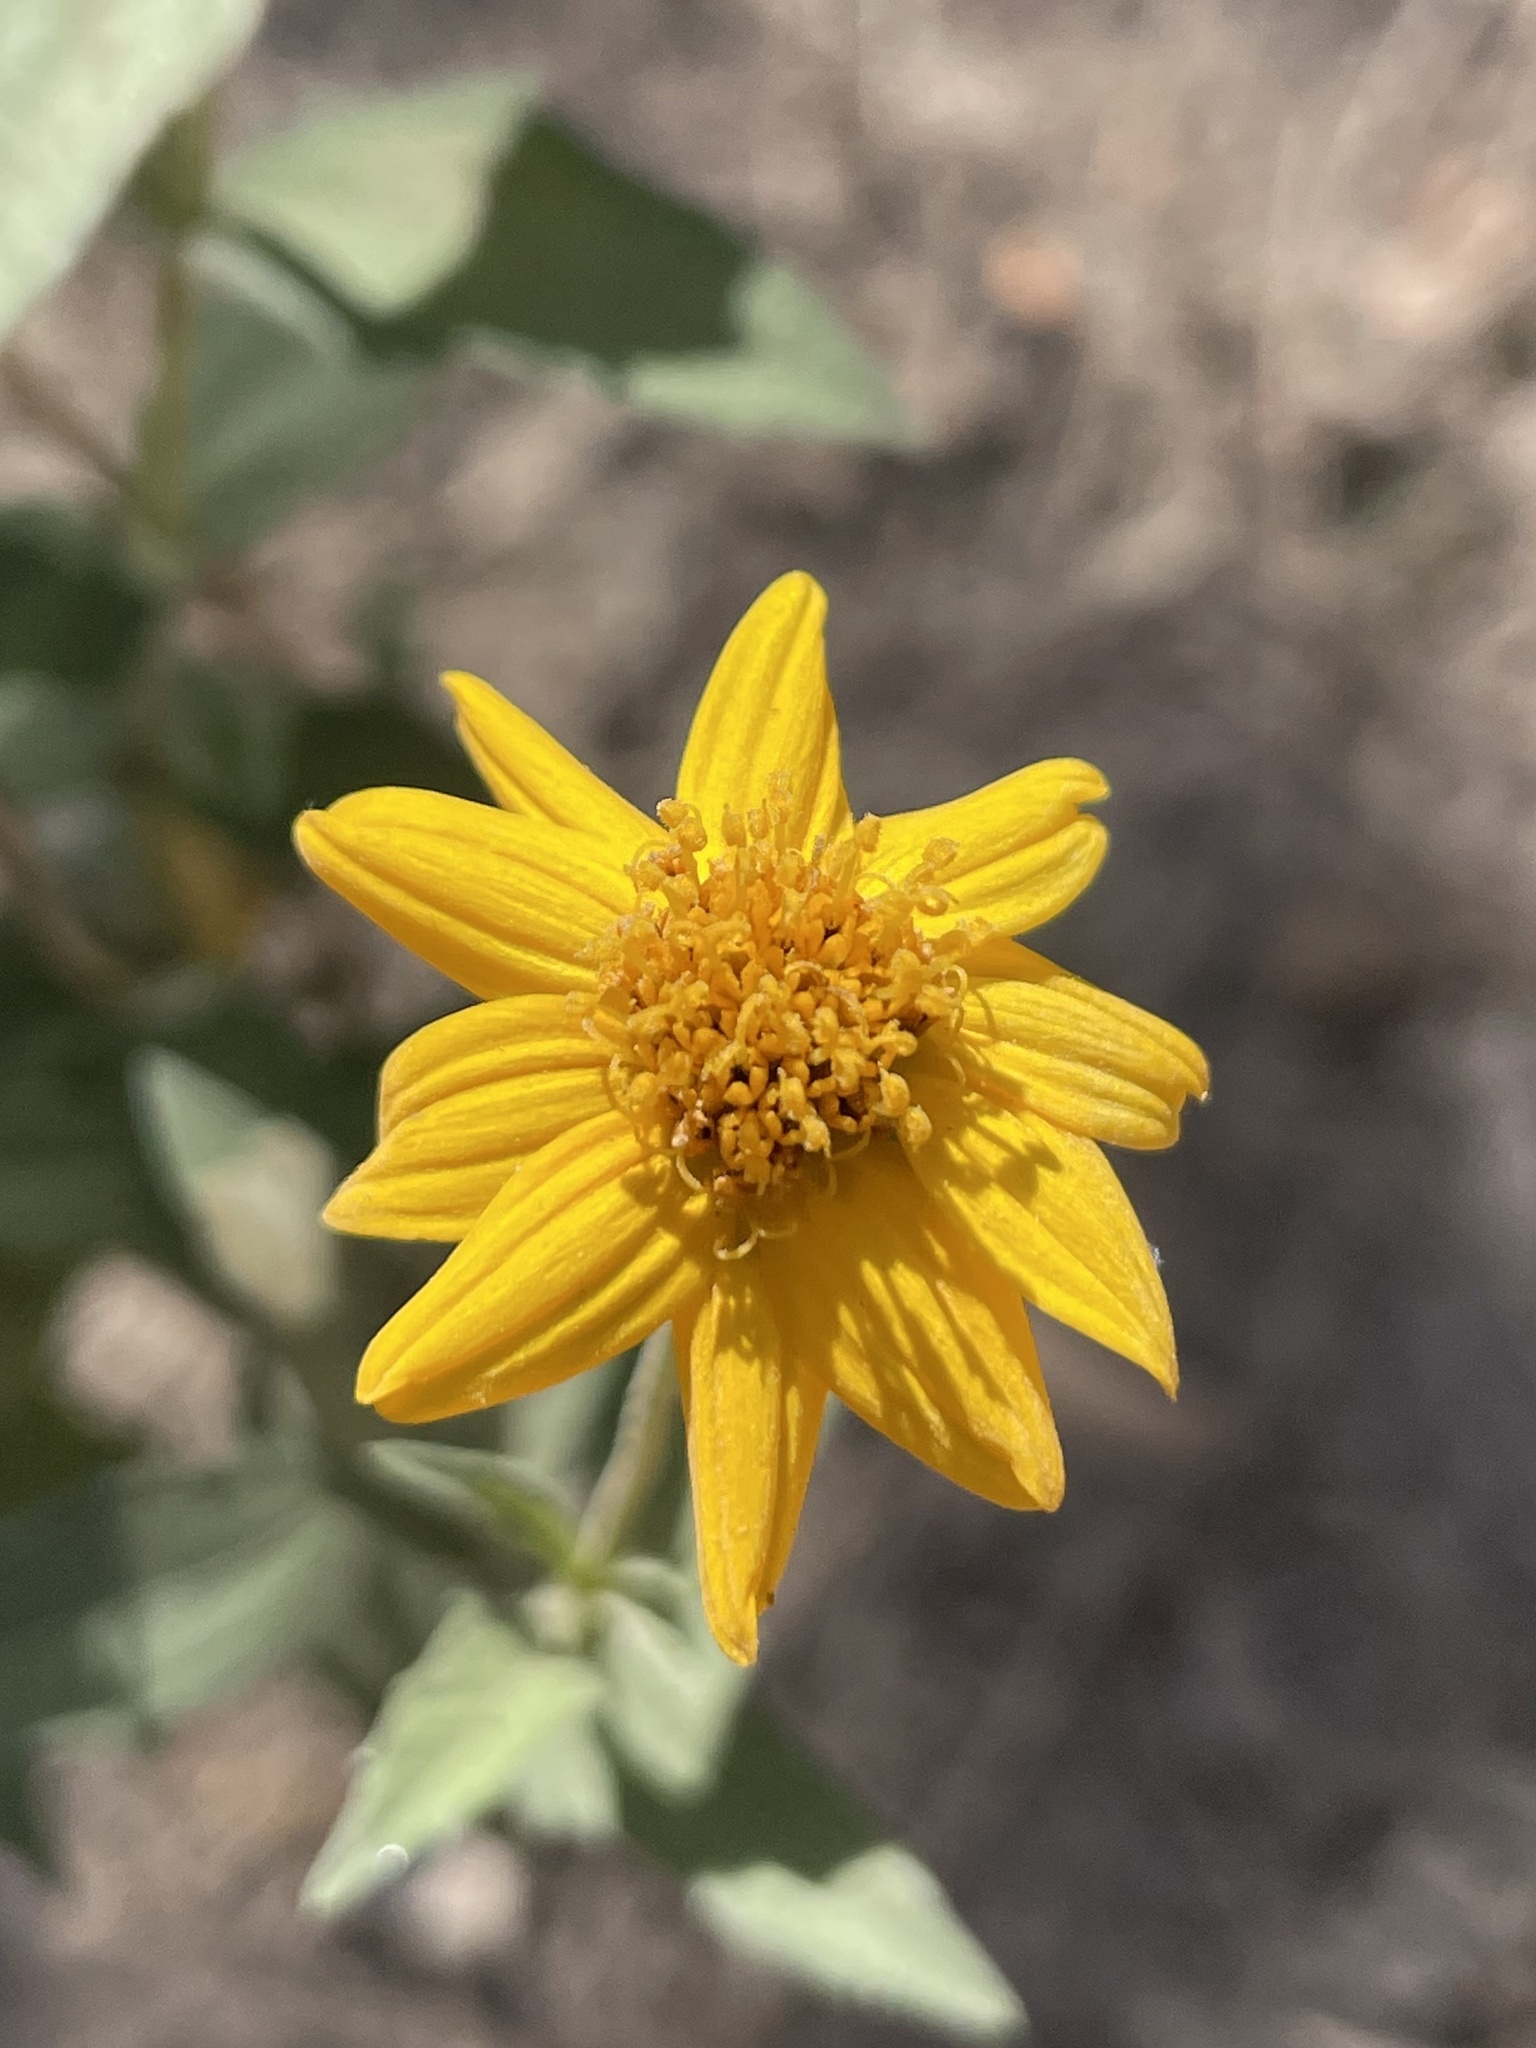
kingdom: Plantae
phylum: Tracheophyta
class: Magnoliopsida
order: Asterales
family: Asteraceae
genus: Wedelia
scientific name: Wedelia acapulcensis
